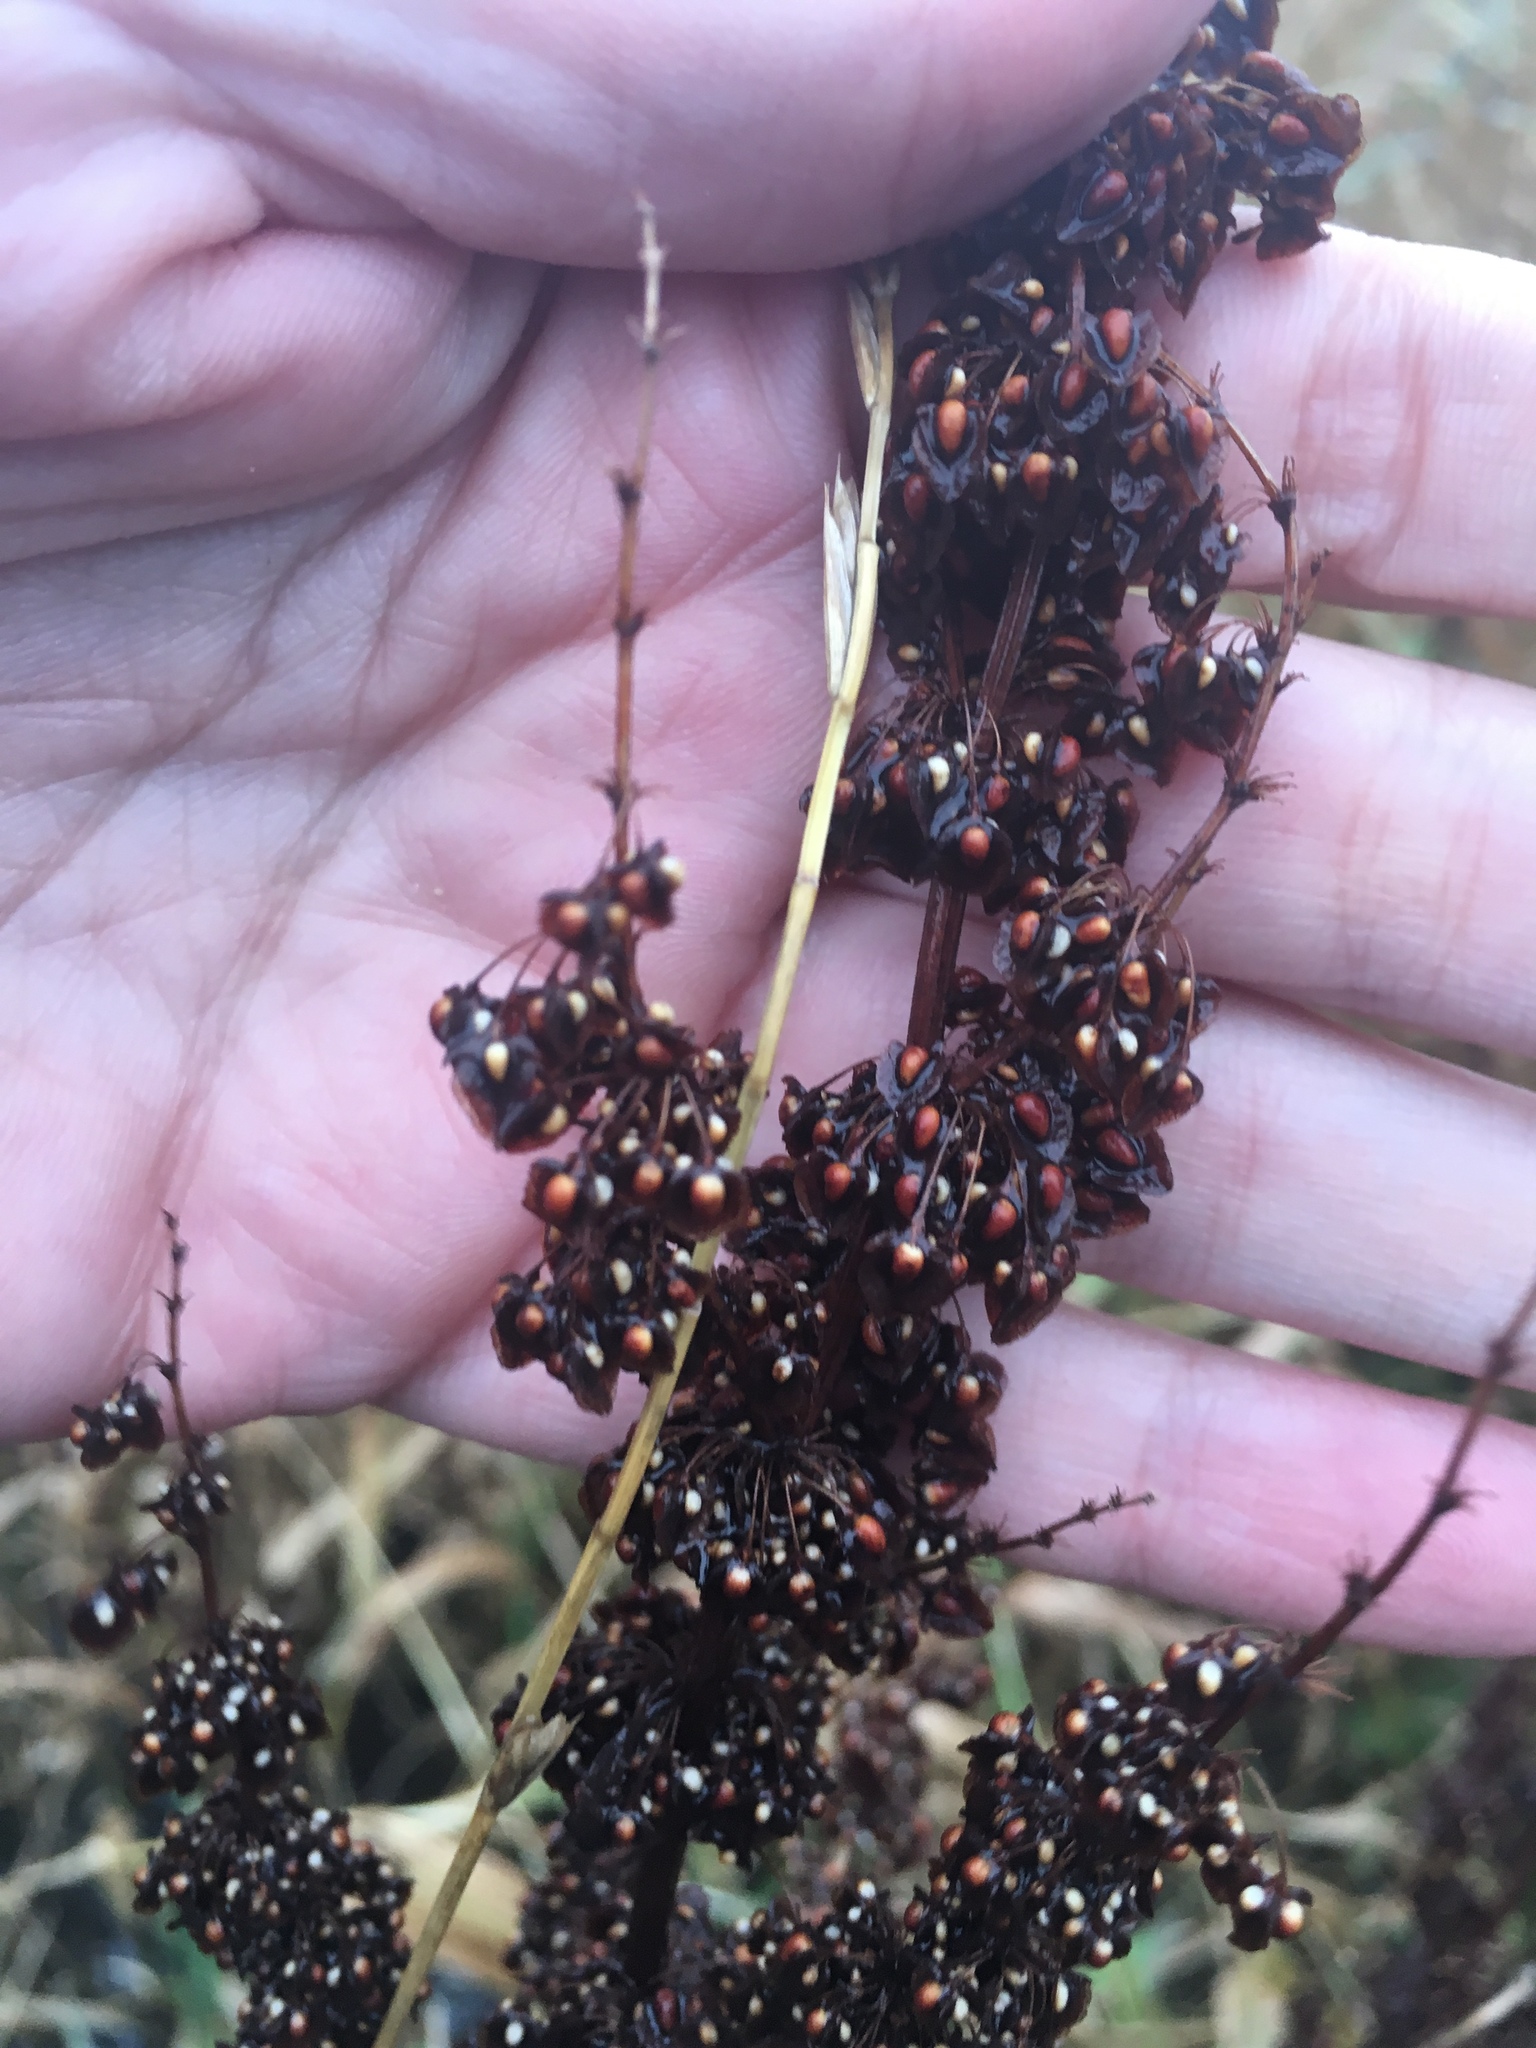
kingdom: Plantae
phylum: Tracheophyta
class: Magnoliopsida
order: Caryophyllales
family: Polygonaceae
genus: Rumex
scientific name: Rumex crispus
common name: Curled dock
